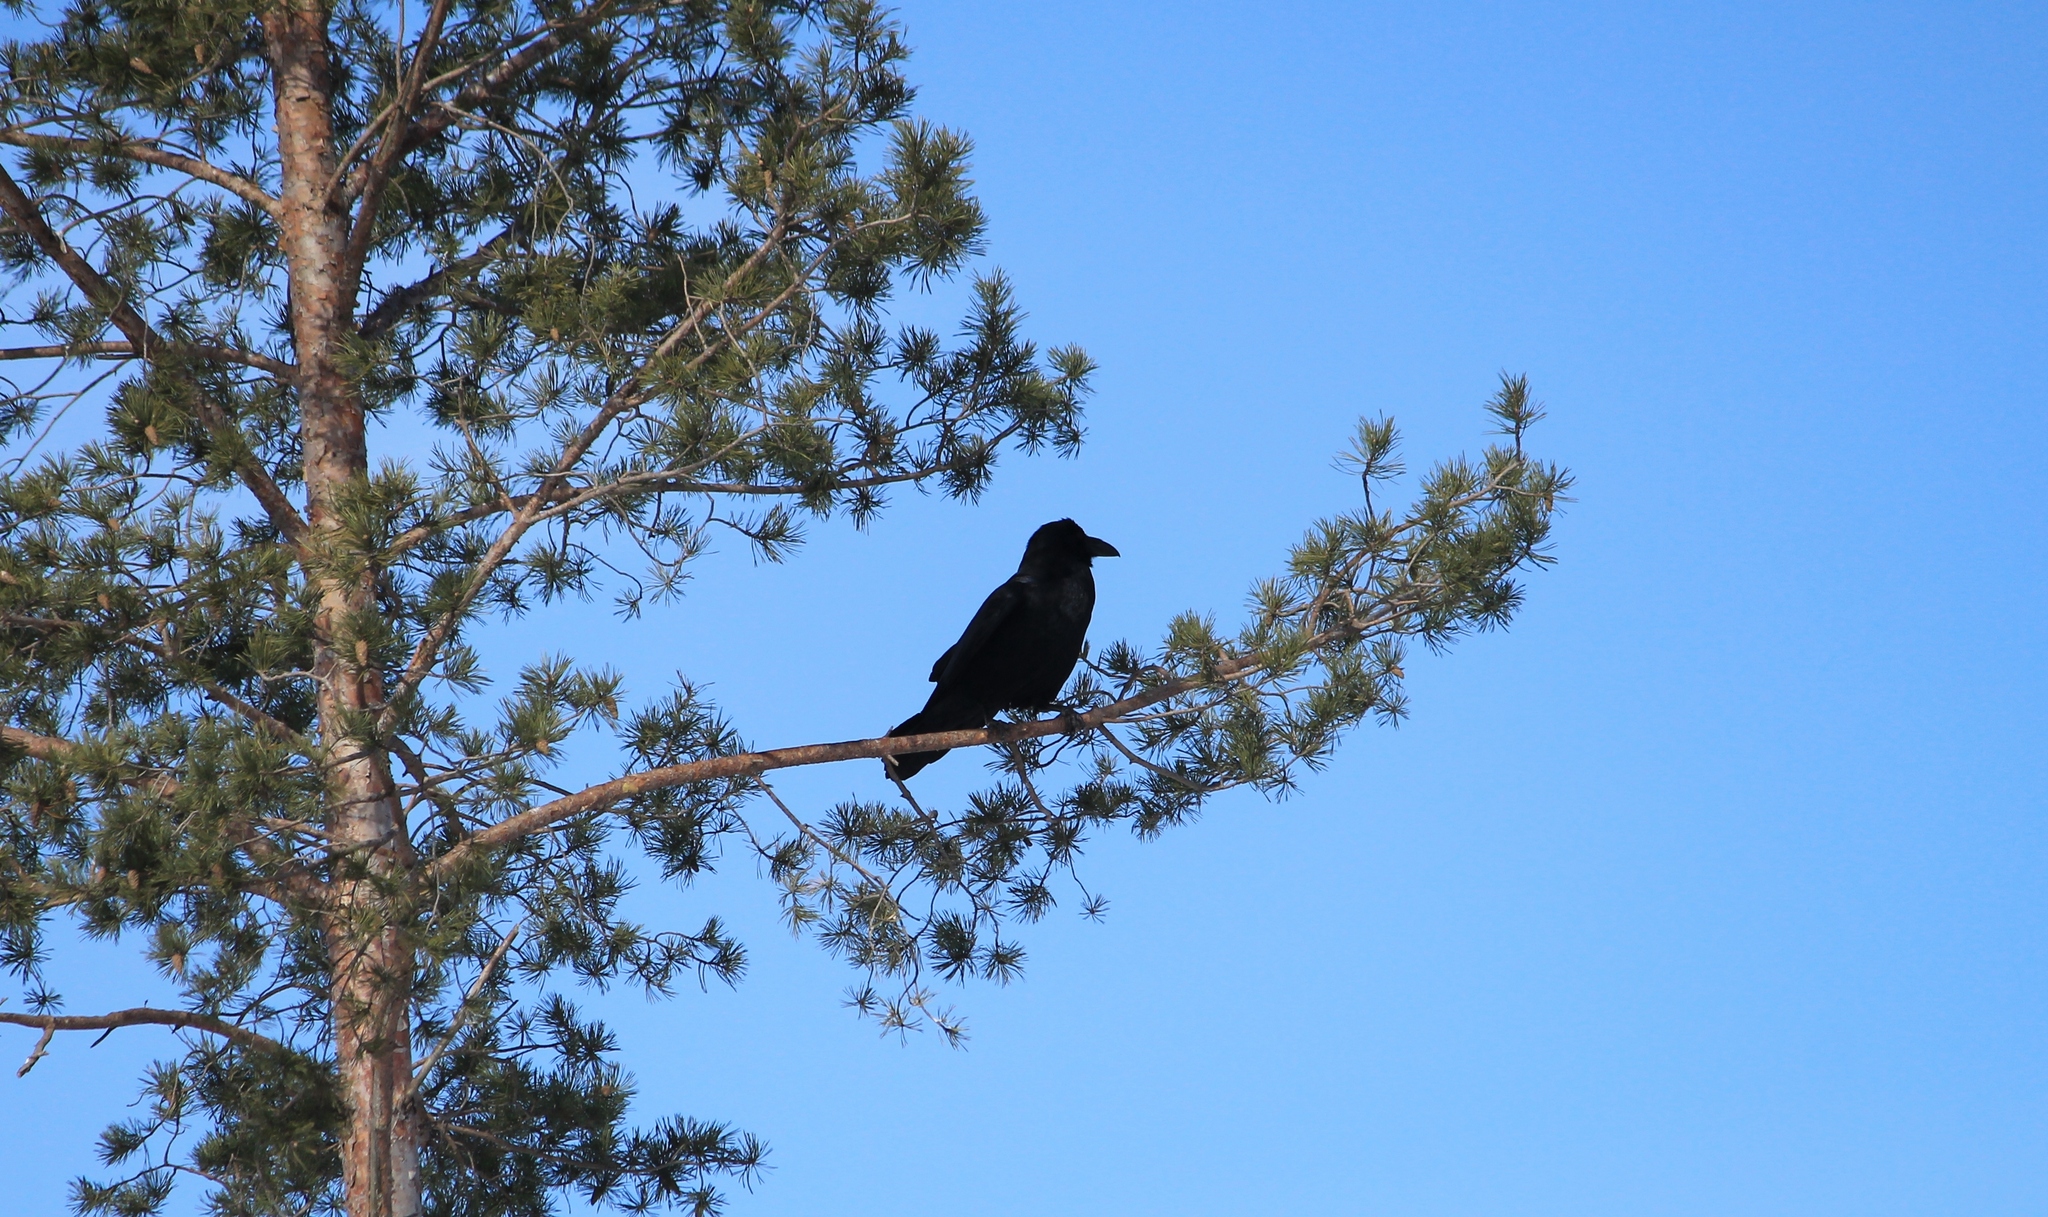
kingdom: Animalia
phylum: Chordata
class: Aves
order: Passeriformes
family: Corvidae
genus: Corvus
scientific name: Corvus corax
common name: Common raven
